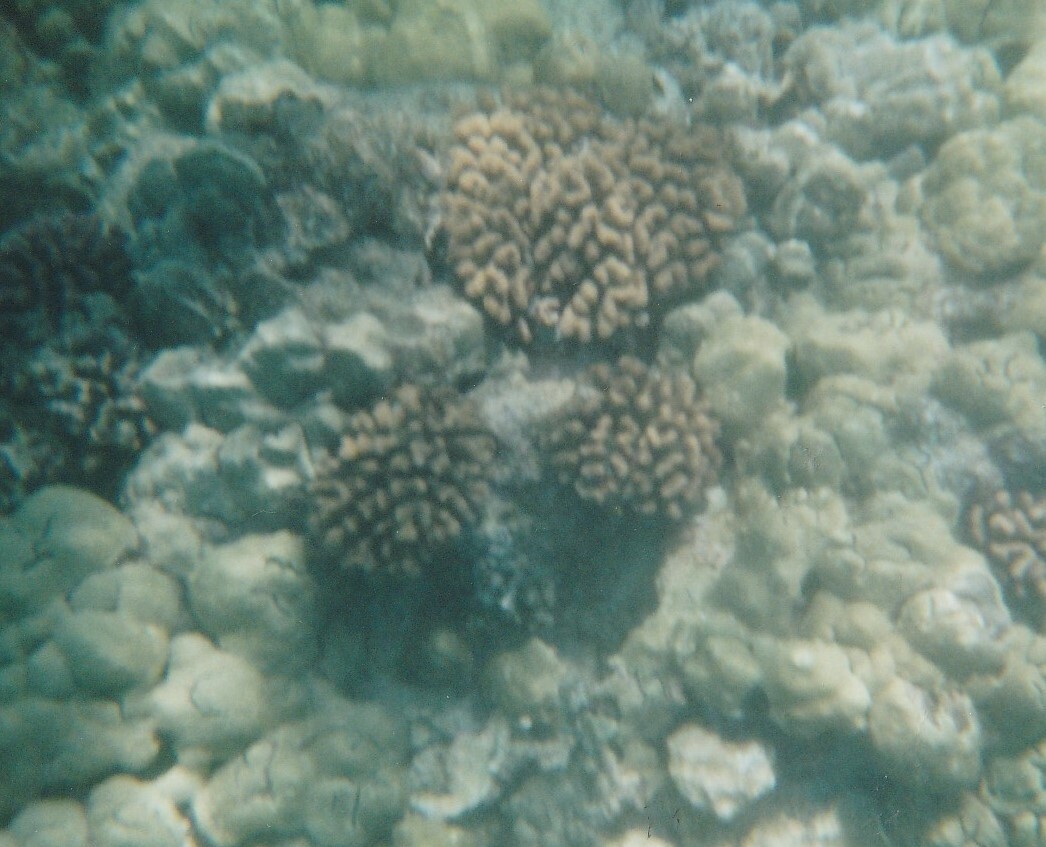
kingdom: Animalia
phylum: Cnidaria
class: Anthozoa
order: Scleractinia
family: Pocilloporidae
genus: Pocillopora
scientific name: Pocillopora meandrina
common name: Cauliflower coral
